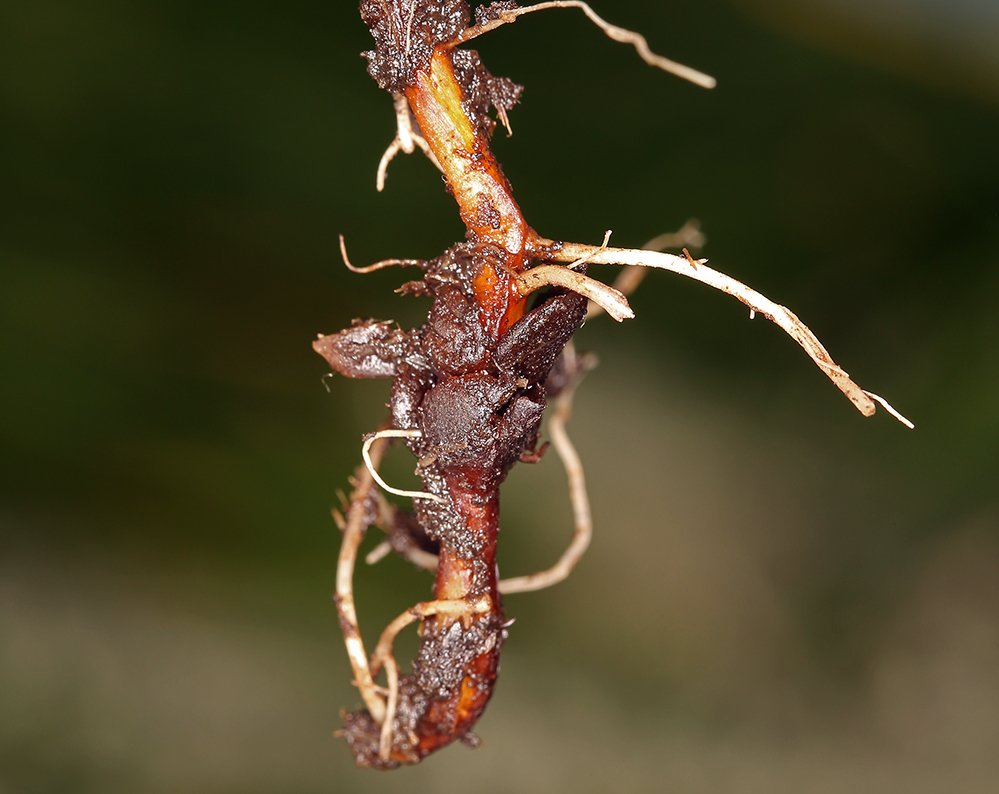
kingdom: Plantae
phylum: Tracheophyta
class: Magnoliopsida
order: Myrtales
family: Onagraceae
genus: Epilobium
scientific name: Epilobium oreganum
